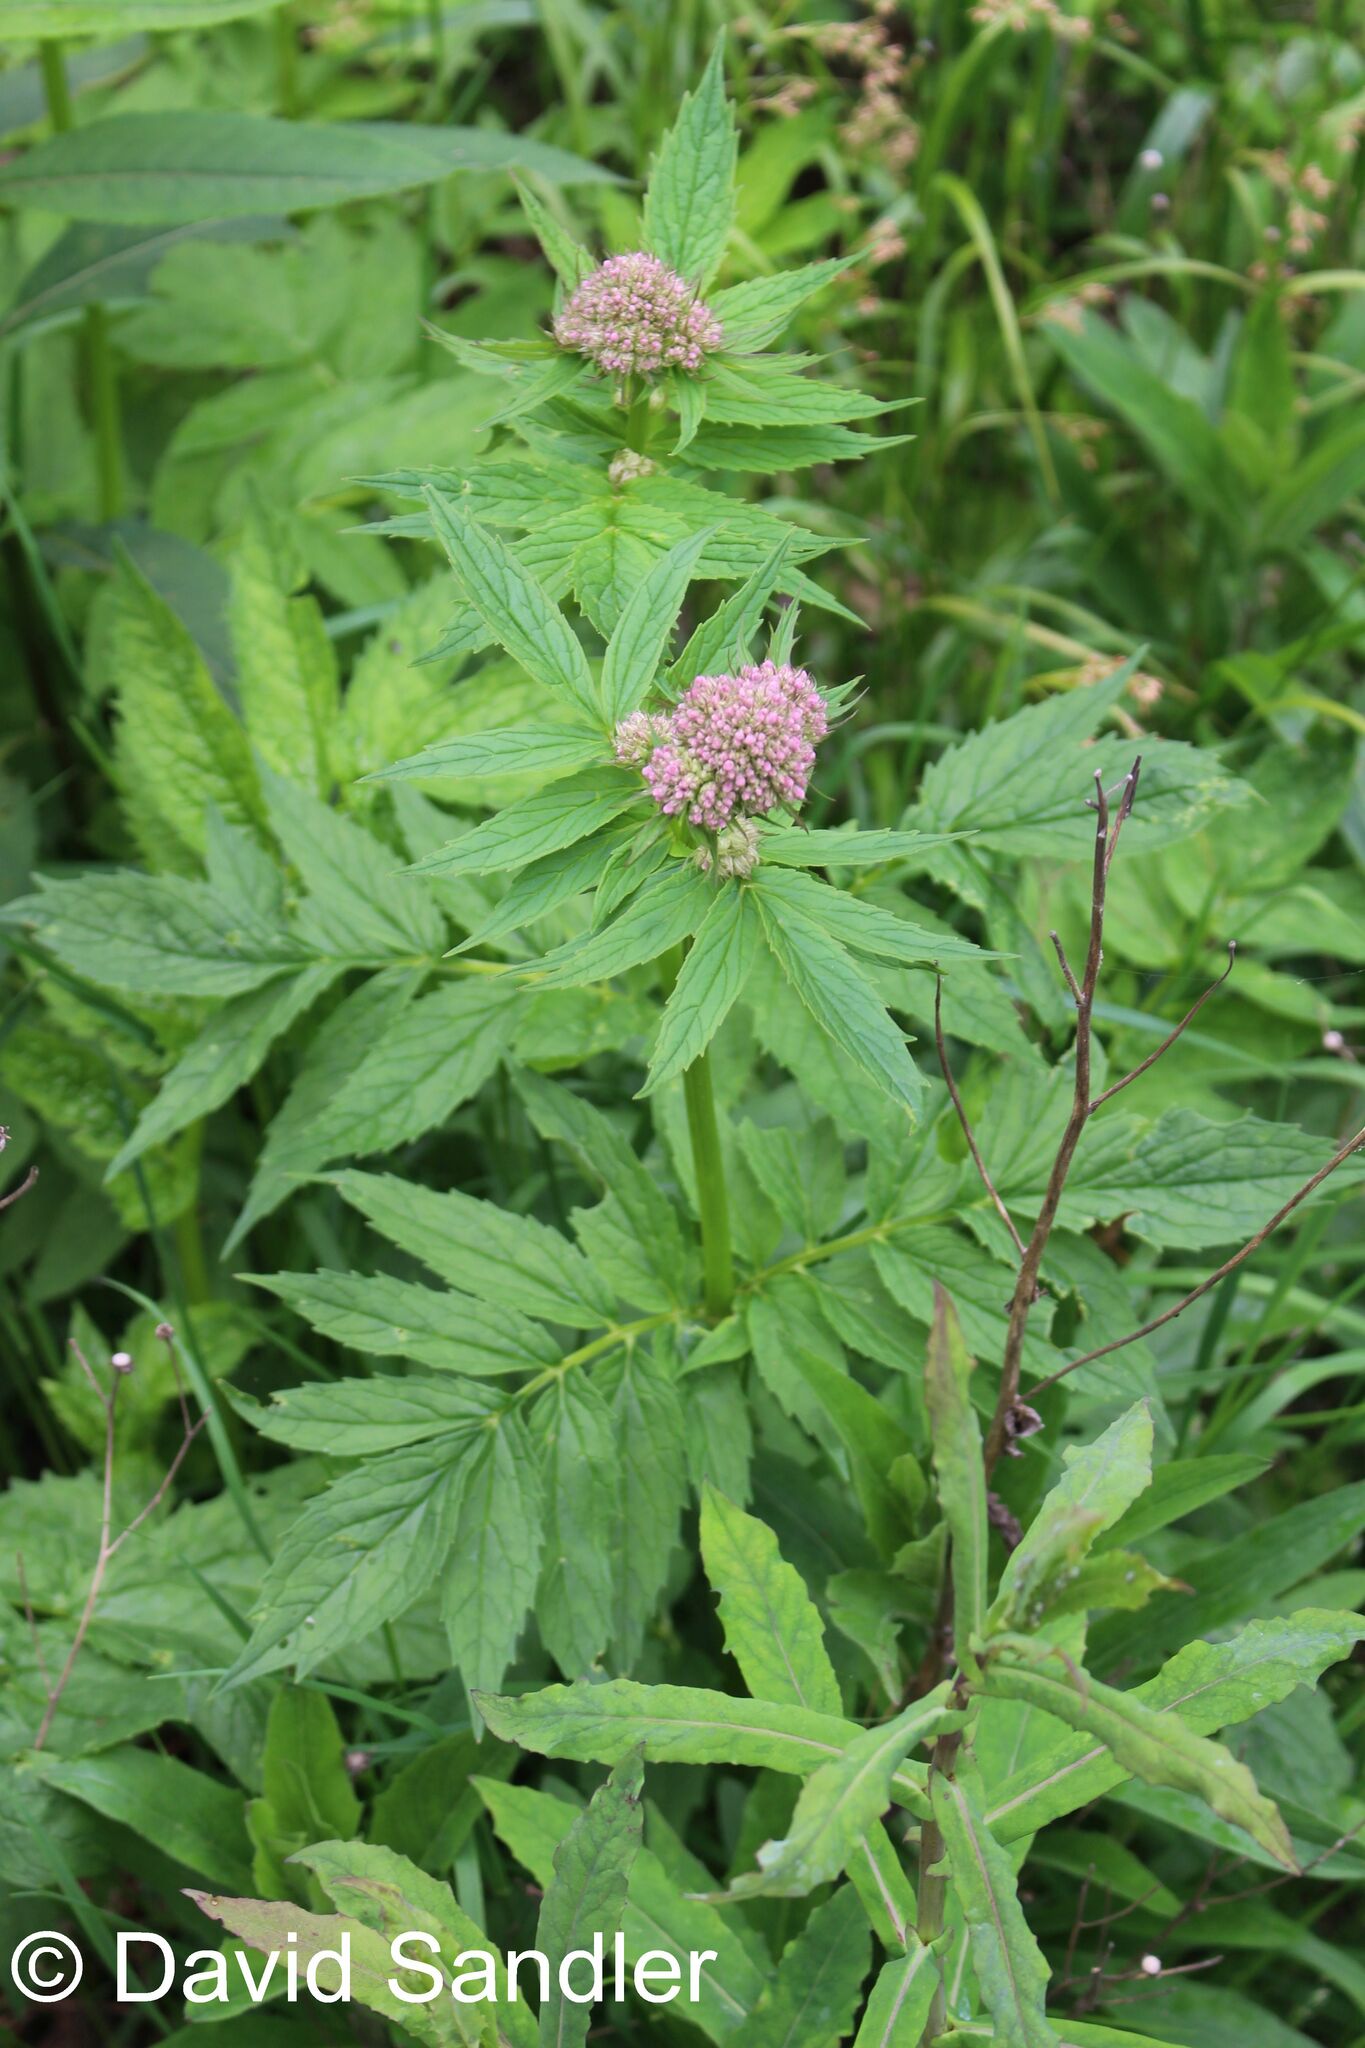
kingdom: Plantae
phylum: Tracheophyta
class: Magnoliopsida
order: Dipsacales
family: Caprifoliaceae
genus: Valeriana
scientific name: Valeriana
